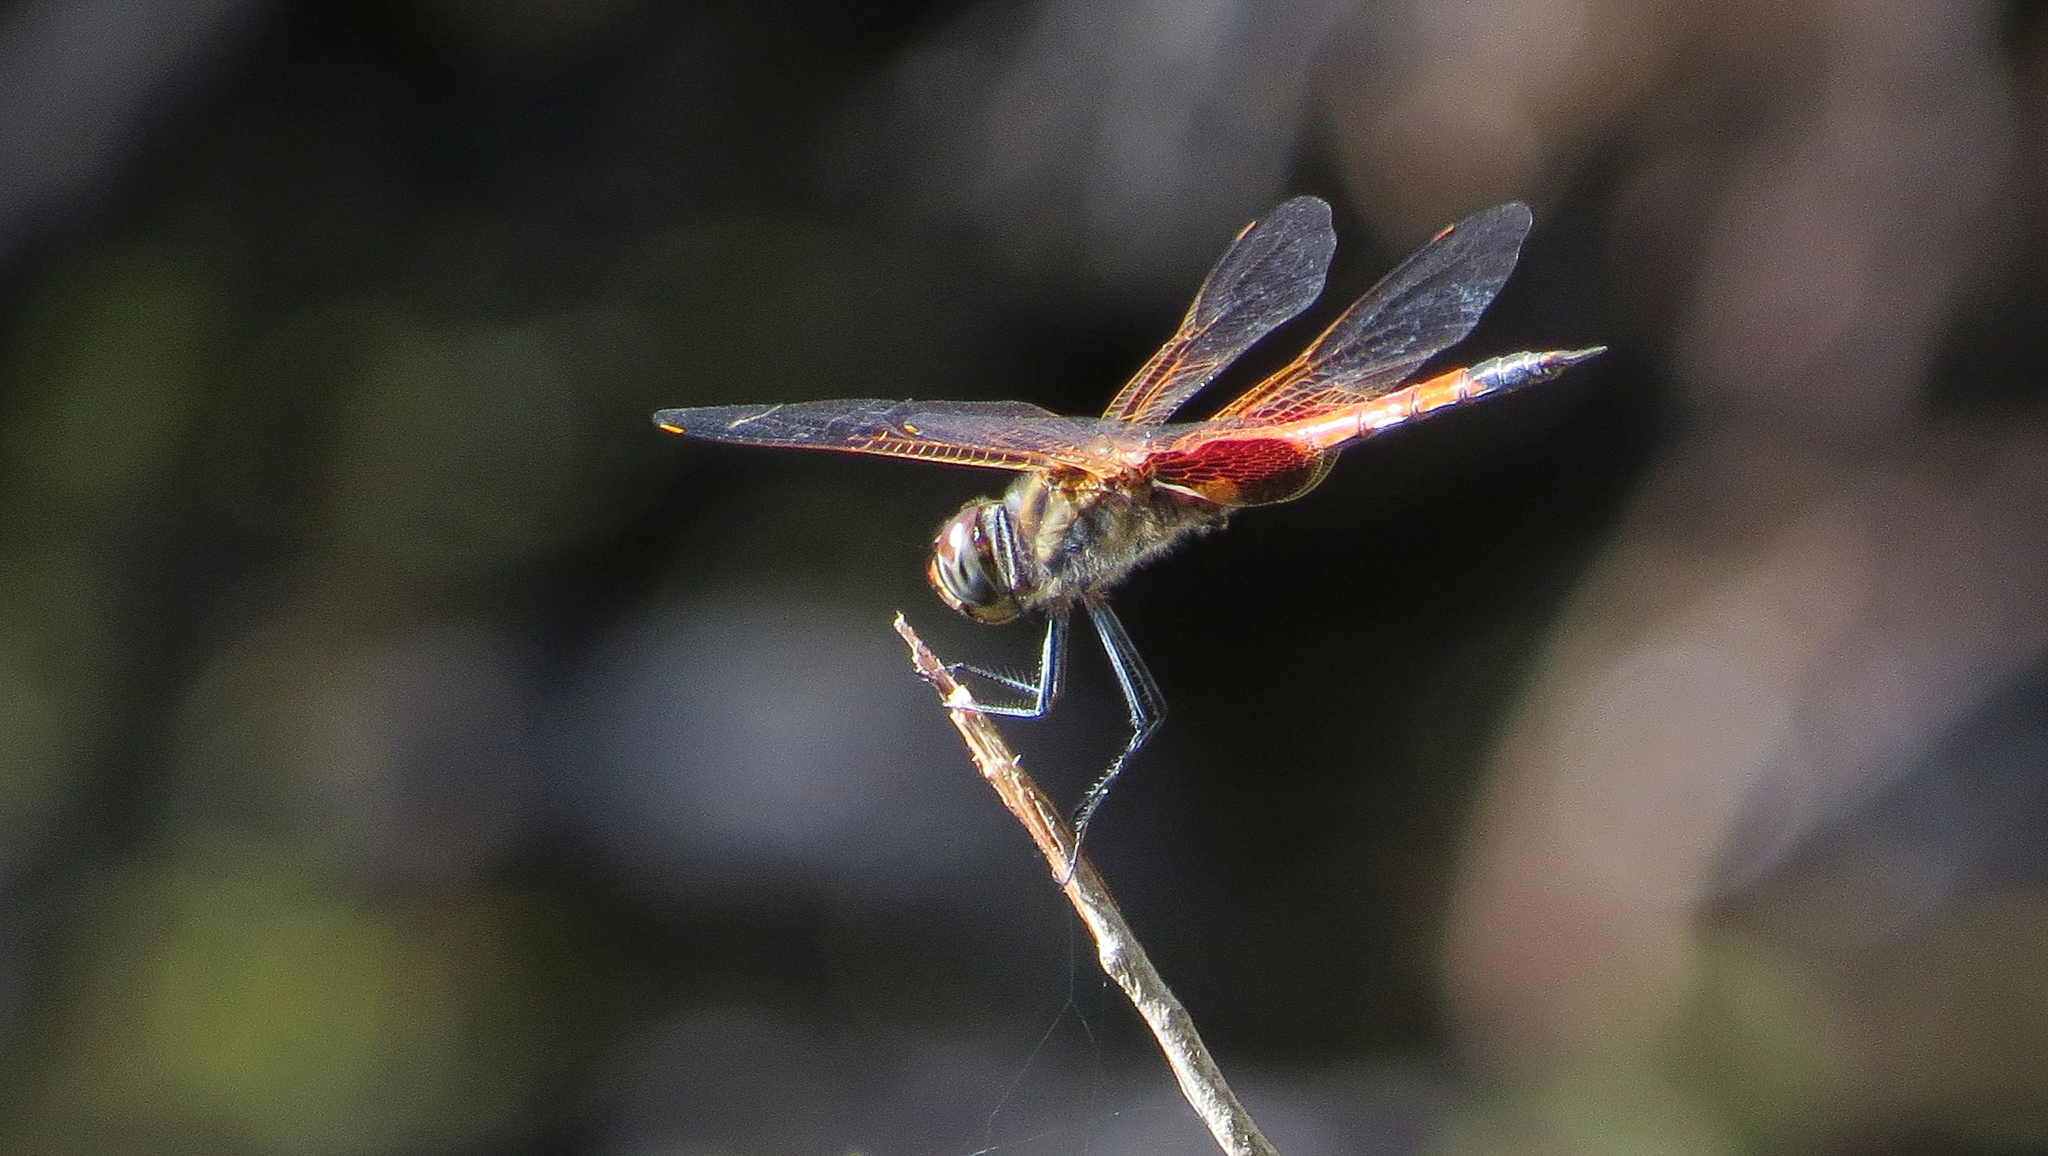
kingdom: Animalia
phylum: Arthropoda
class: Insecta
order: Odonata
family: Libellulidae
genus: Tramea
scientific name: Tramea loewii
